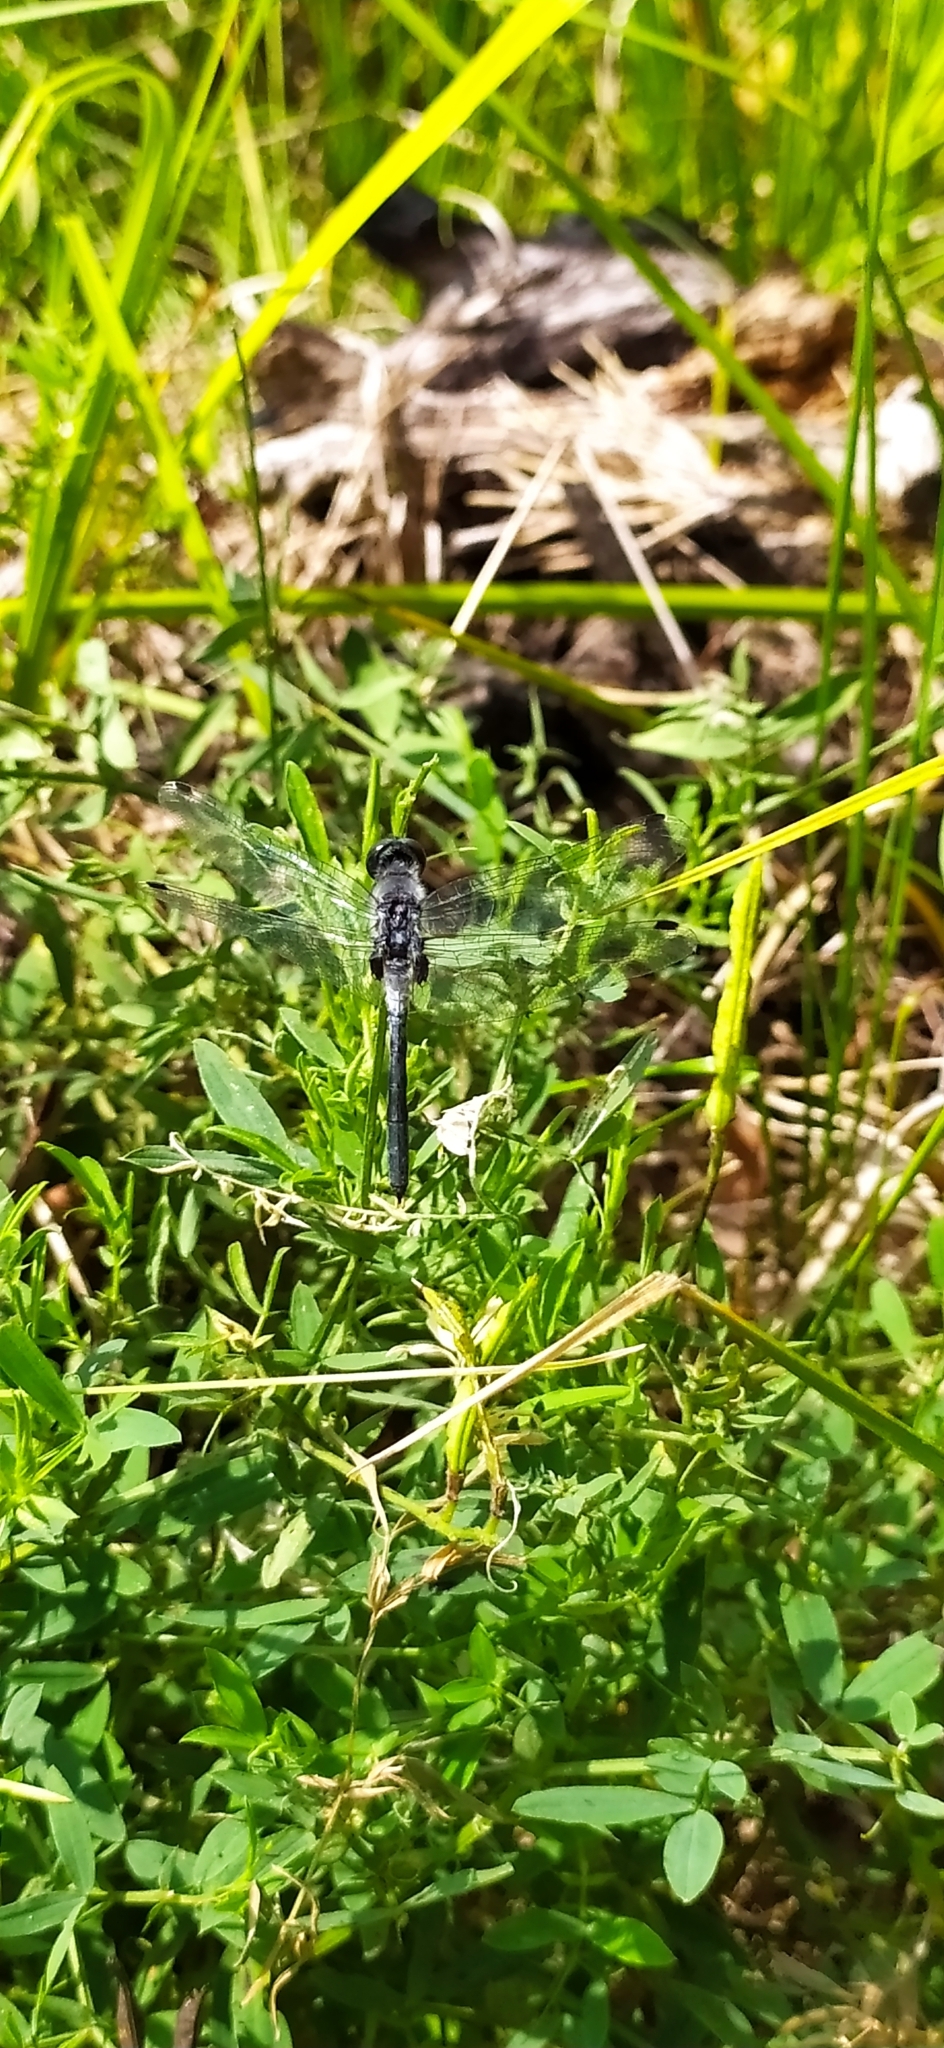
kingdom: Animalia
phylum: Arthropoda
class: Insecta
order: Odonata
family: Libellulidae
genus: Leucorrhinia
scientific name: Leucorrhinia albifrons
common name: Dark whiteface
